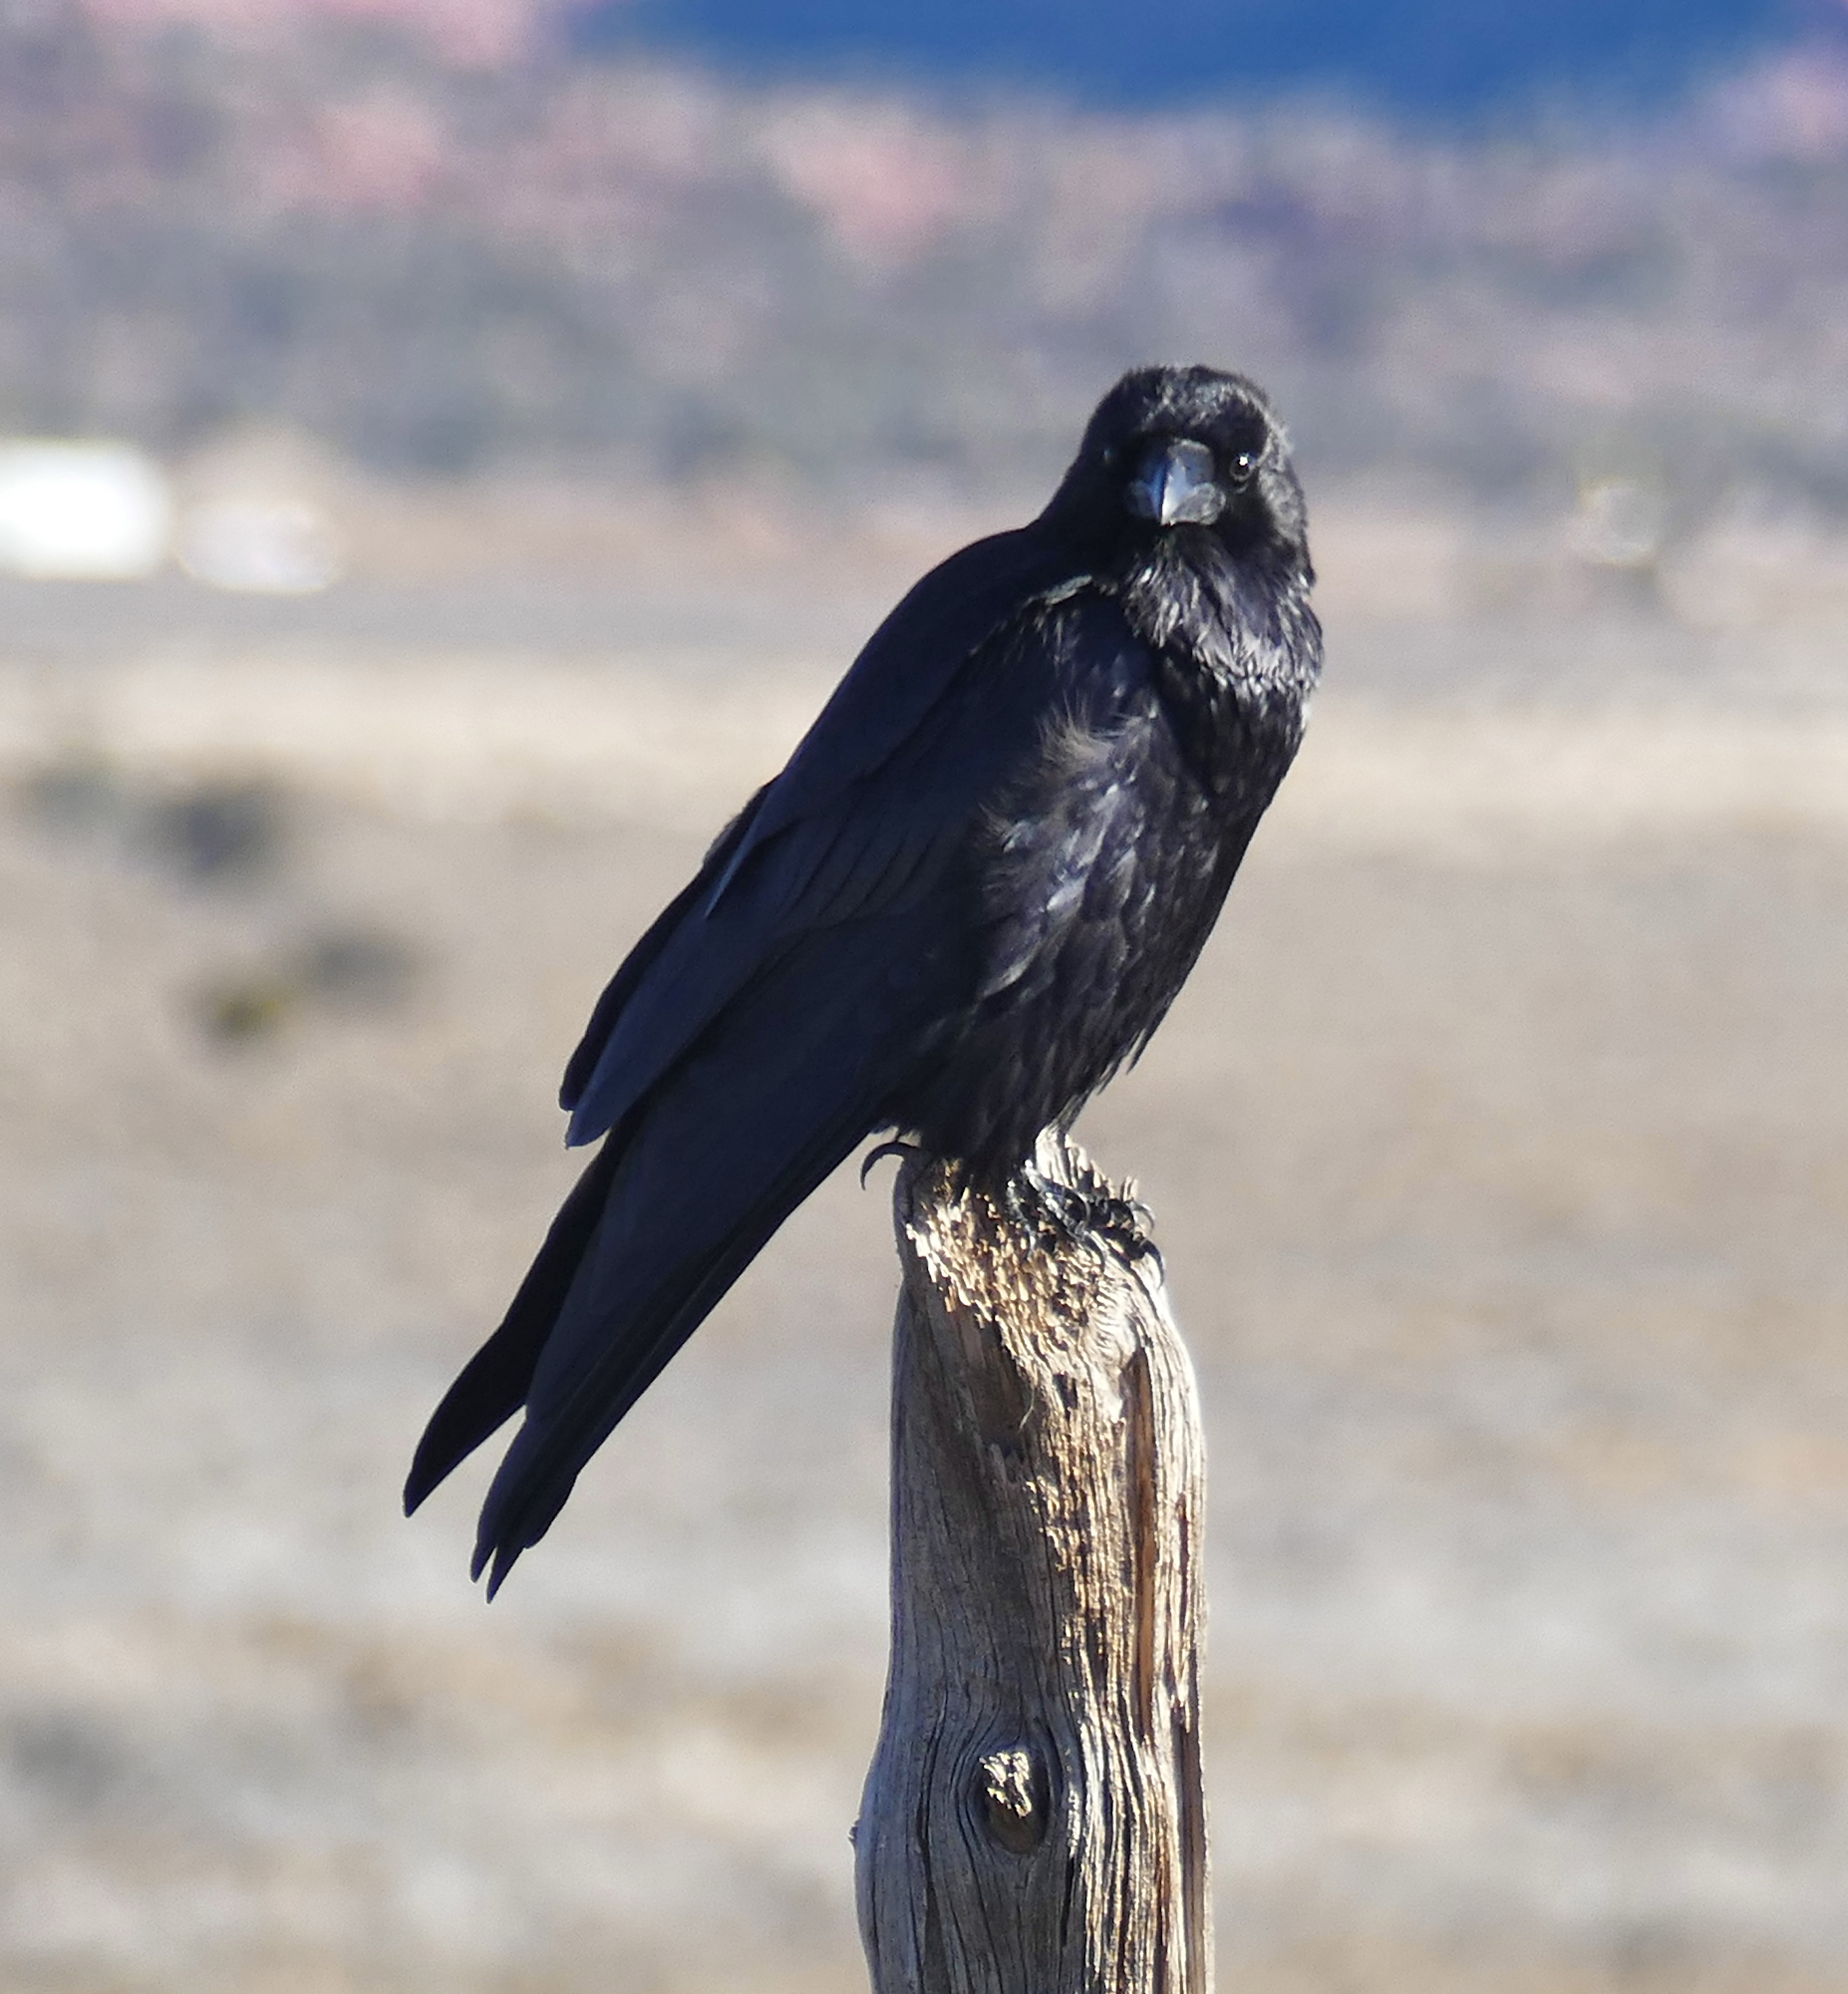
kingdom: Animalia
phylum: Chordata
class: Aves
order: Passeriformes
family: Corvidae
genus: Corvus
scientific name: Corvus corax
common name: Common raven
